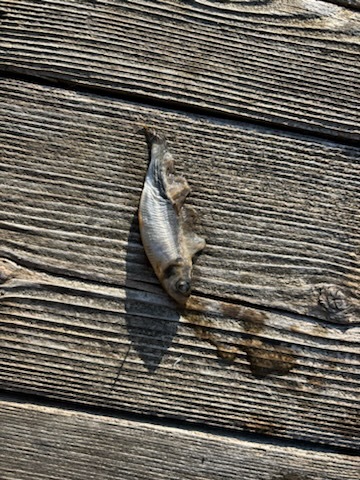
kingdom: Animalia
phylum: Chordata
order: Clupeiformes
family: Clupeidae
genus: Alosa
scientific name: Alosa pseudoharengus
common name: Alewife
